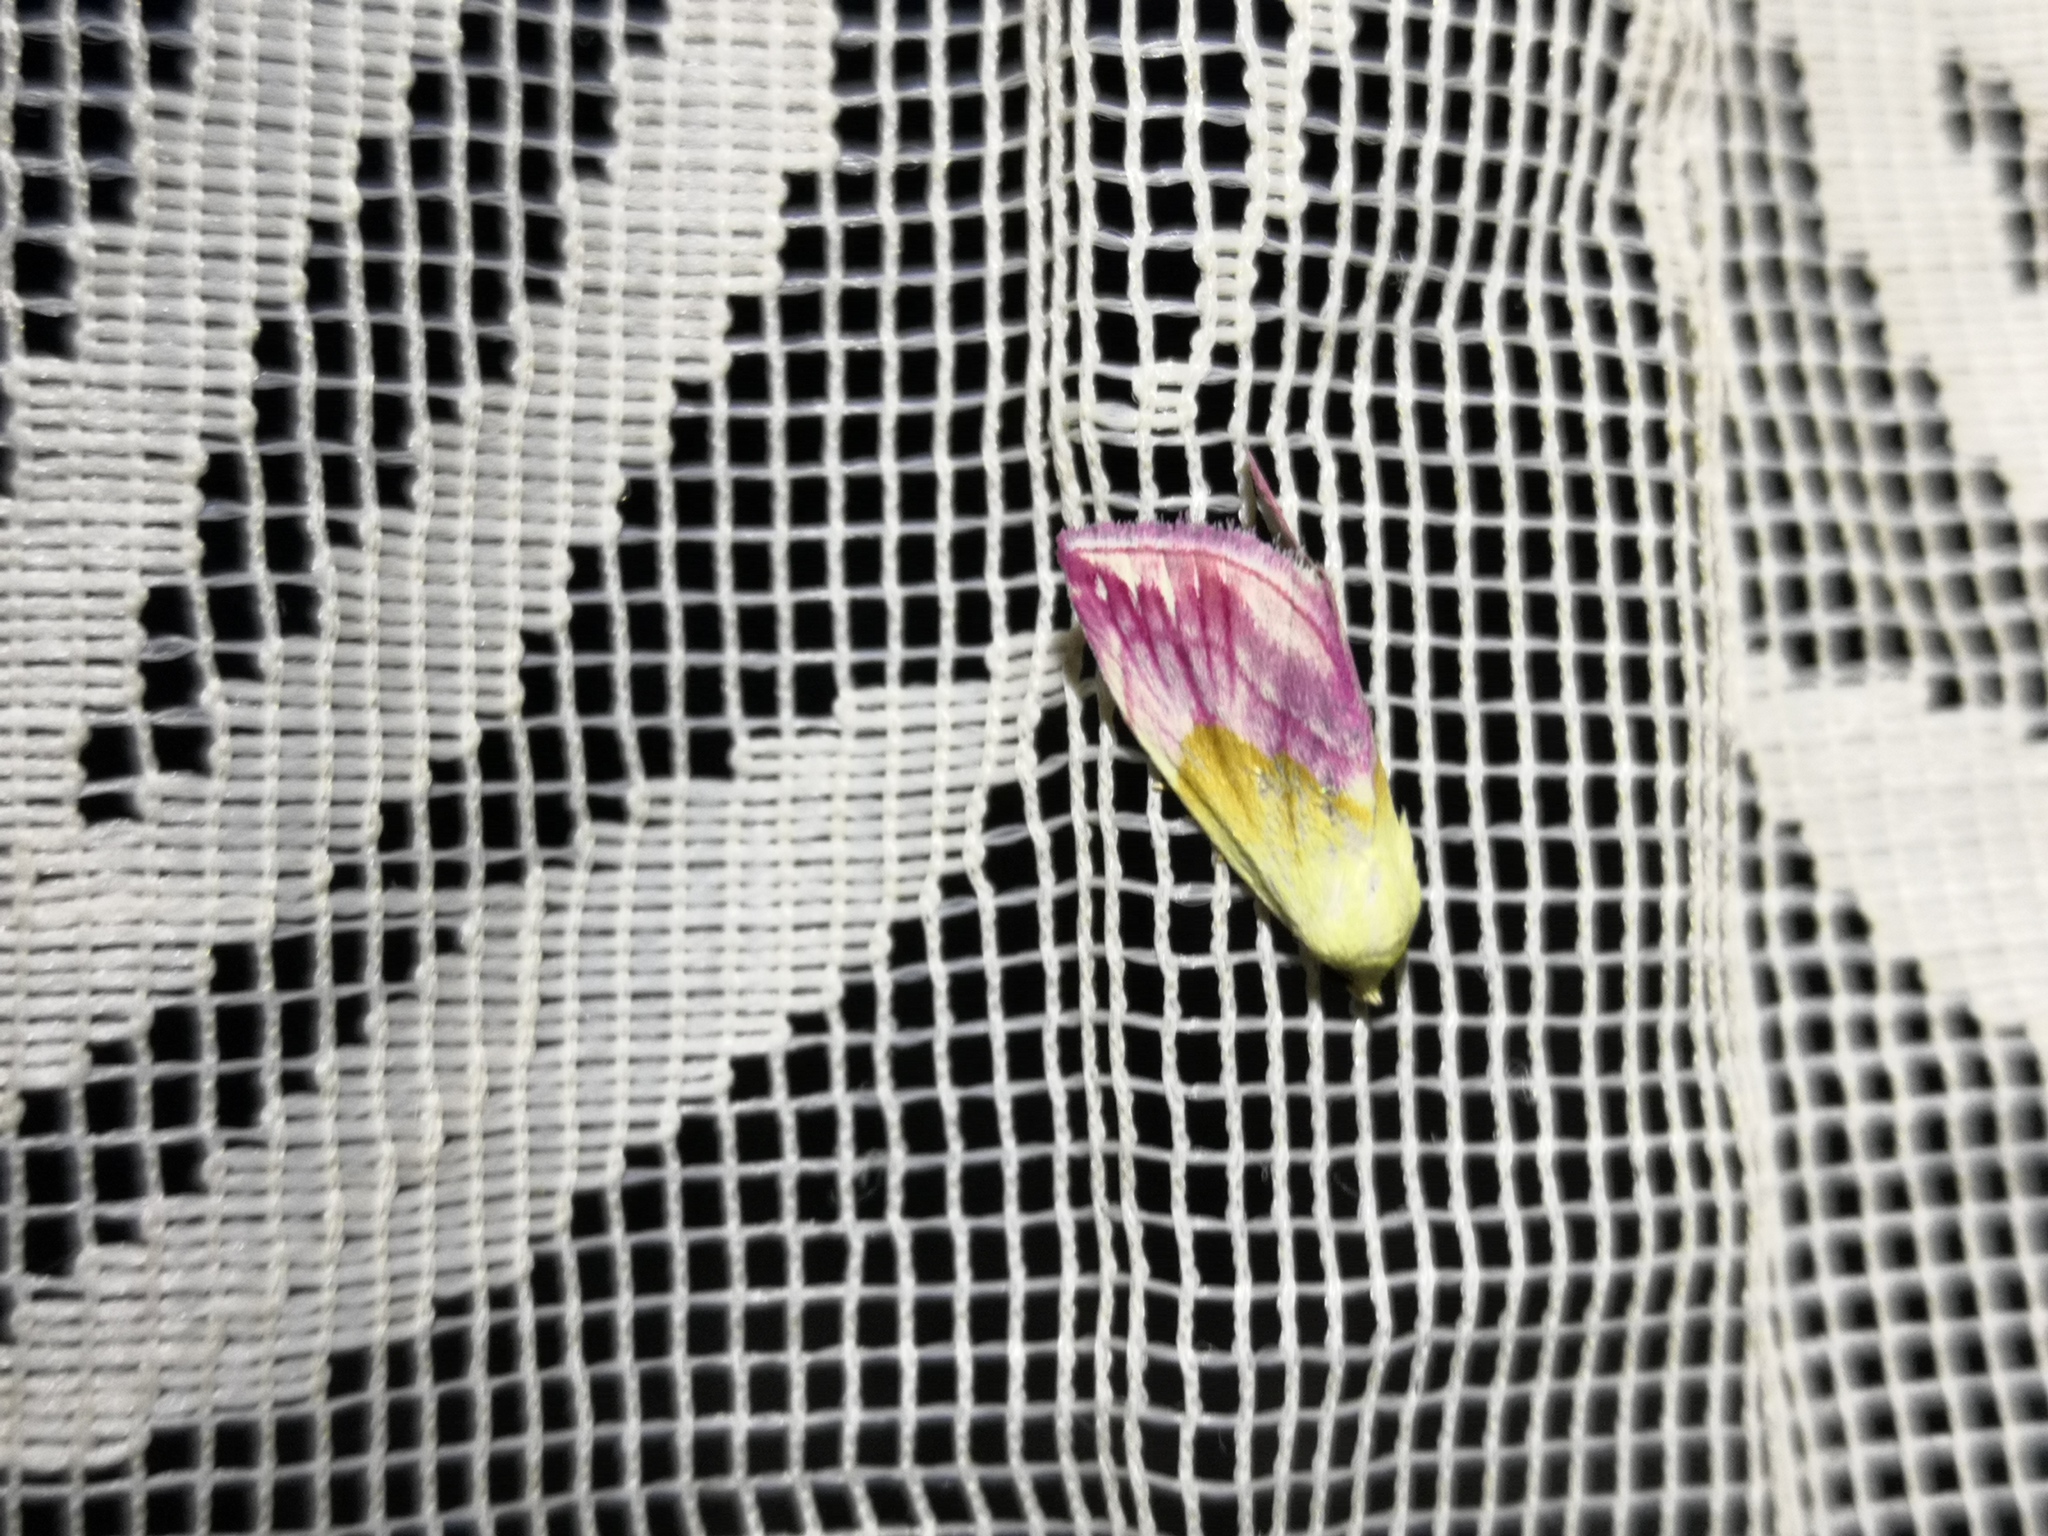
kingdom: Animalia
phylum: Arthropoda
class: Insecta
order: Lepidoptera
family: Noctuidae
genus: Eublemma
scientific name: Eublemma purpurina
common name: Beautiful marbled
